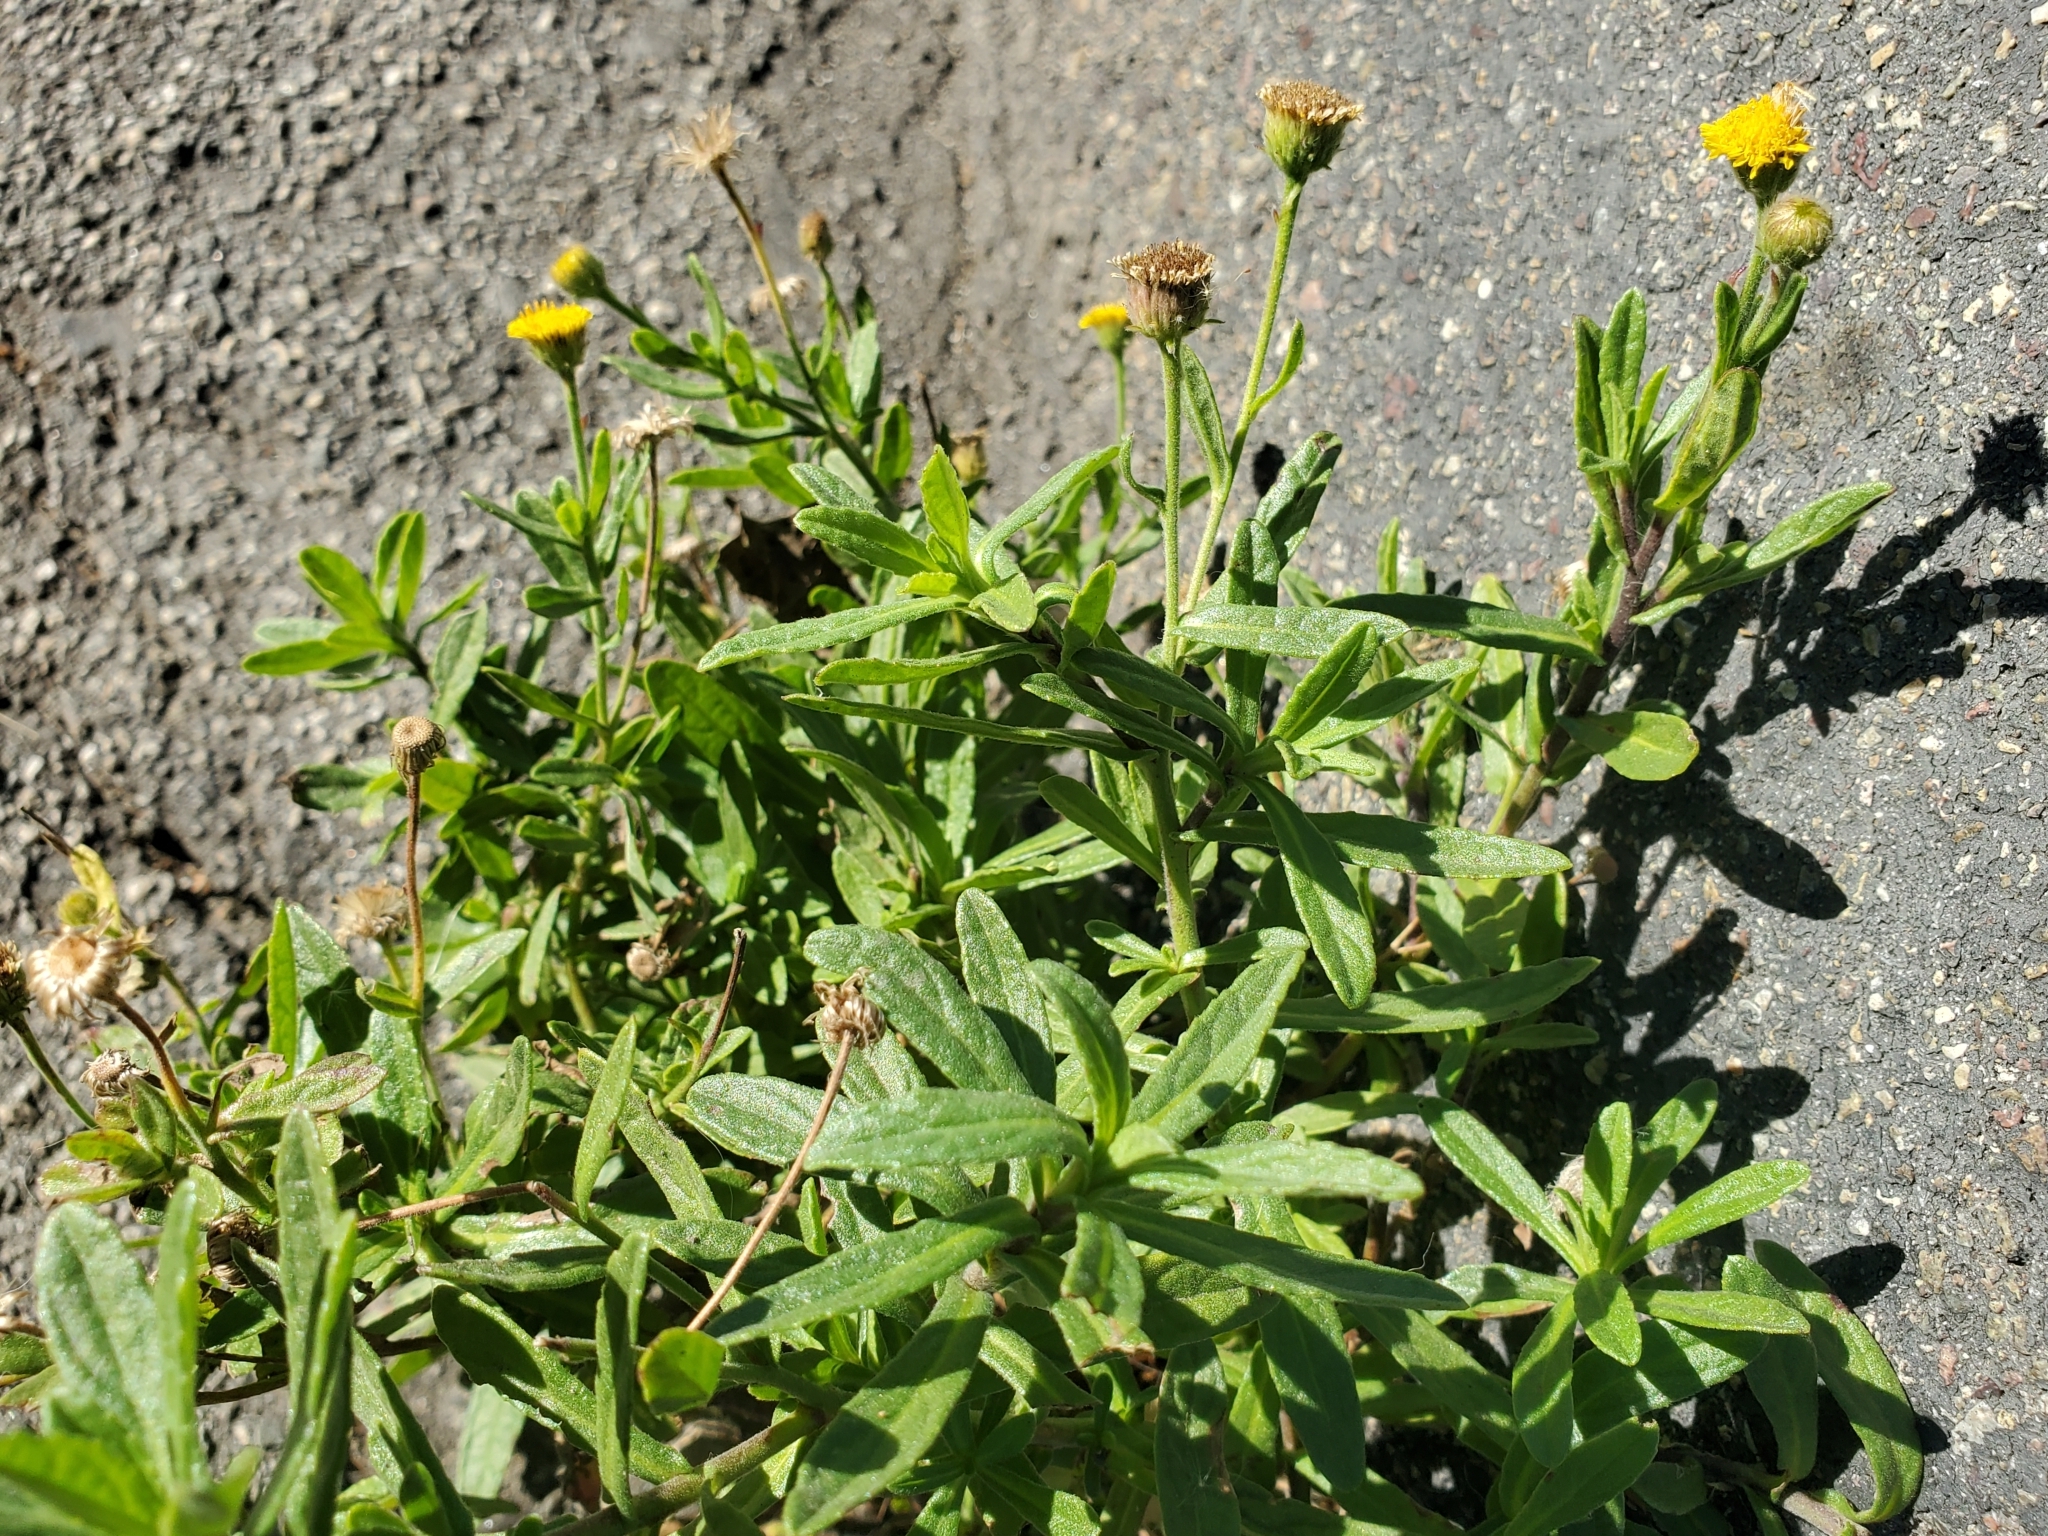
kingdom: Plantae
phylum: Tracheophyta
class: Magnoliopsida
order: Asterales
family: Asteraceae
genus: Pulicaria
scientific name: Pulicaria paludosa
